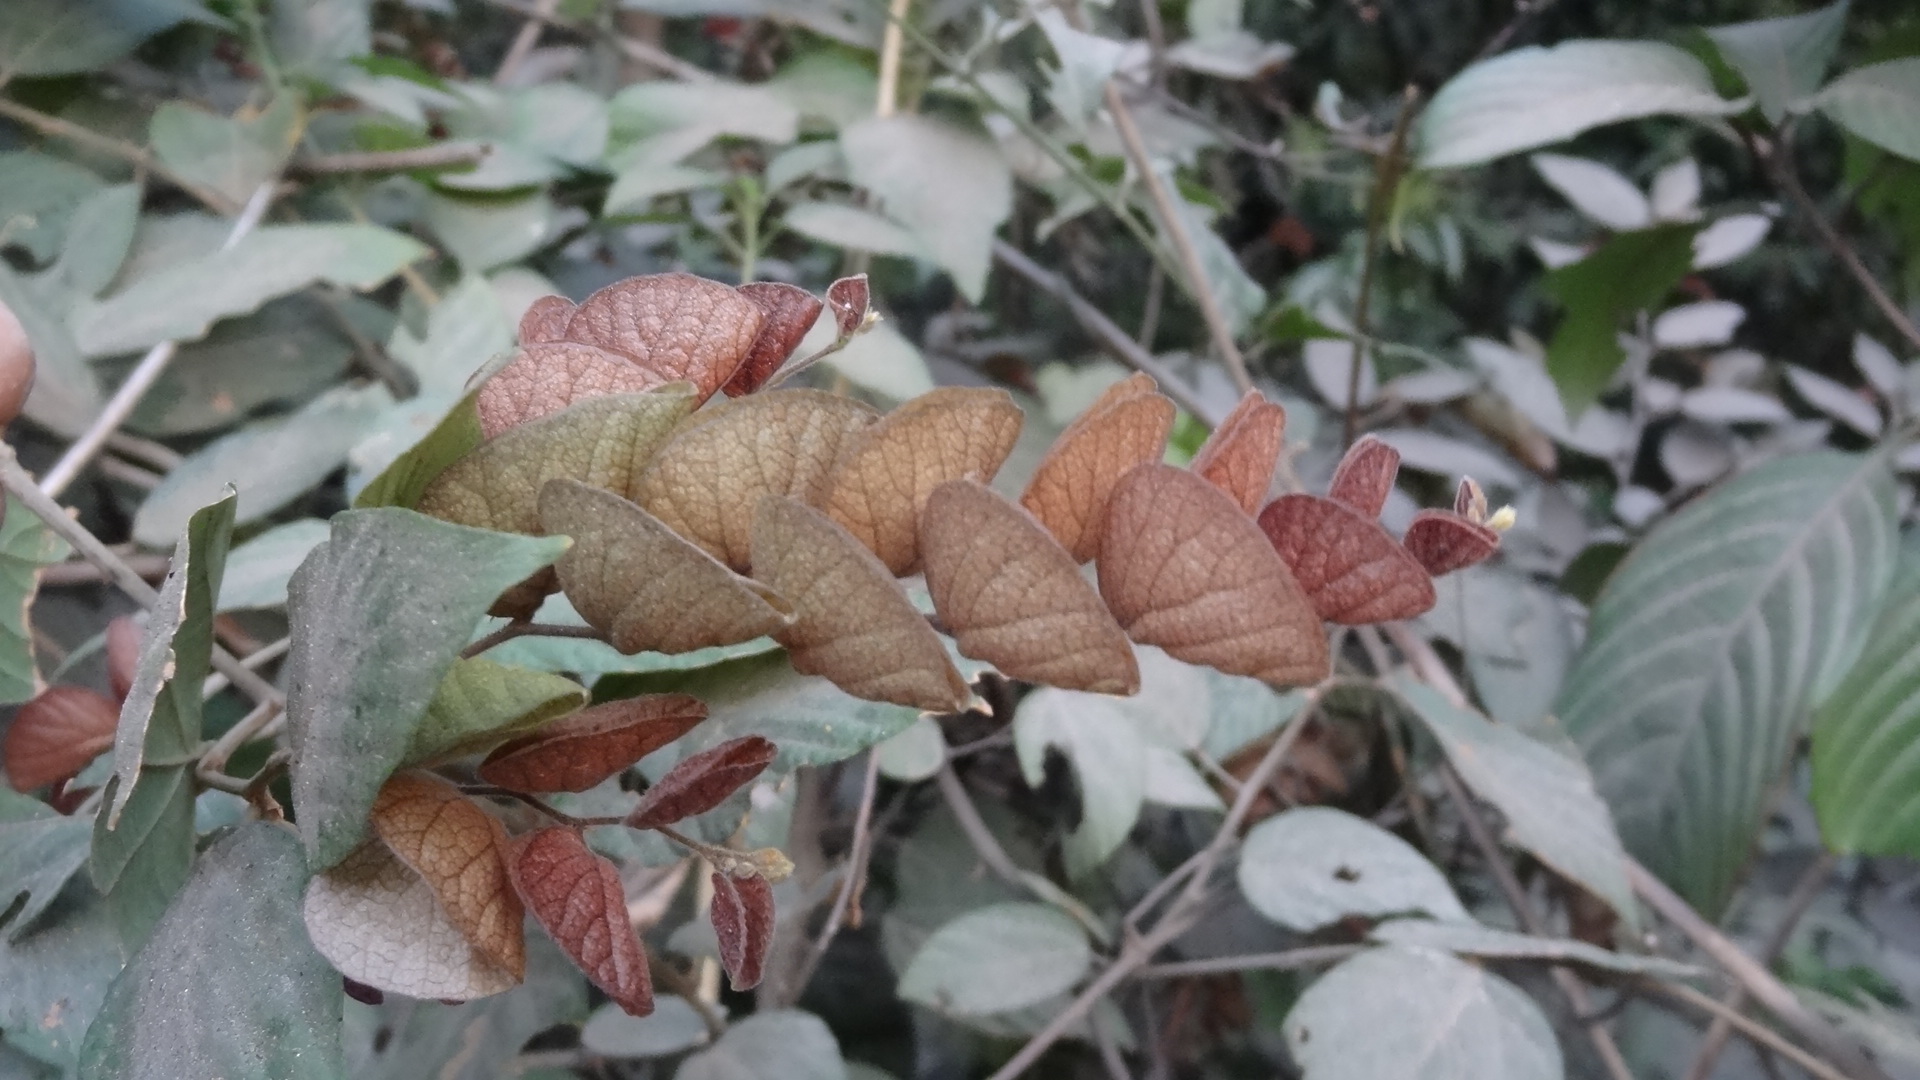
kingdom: Plantae
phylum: Tracheophyta
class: Magnoliopsida
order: Fabales
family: Fabaceae
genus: Flemingia
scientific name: Flemingia strobilifera
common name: Wild hops
